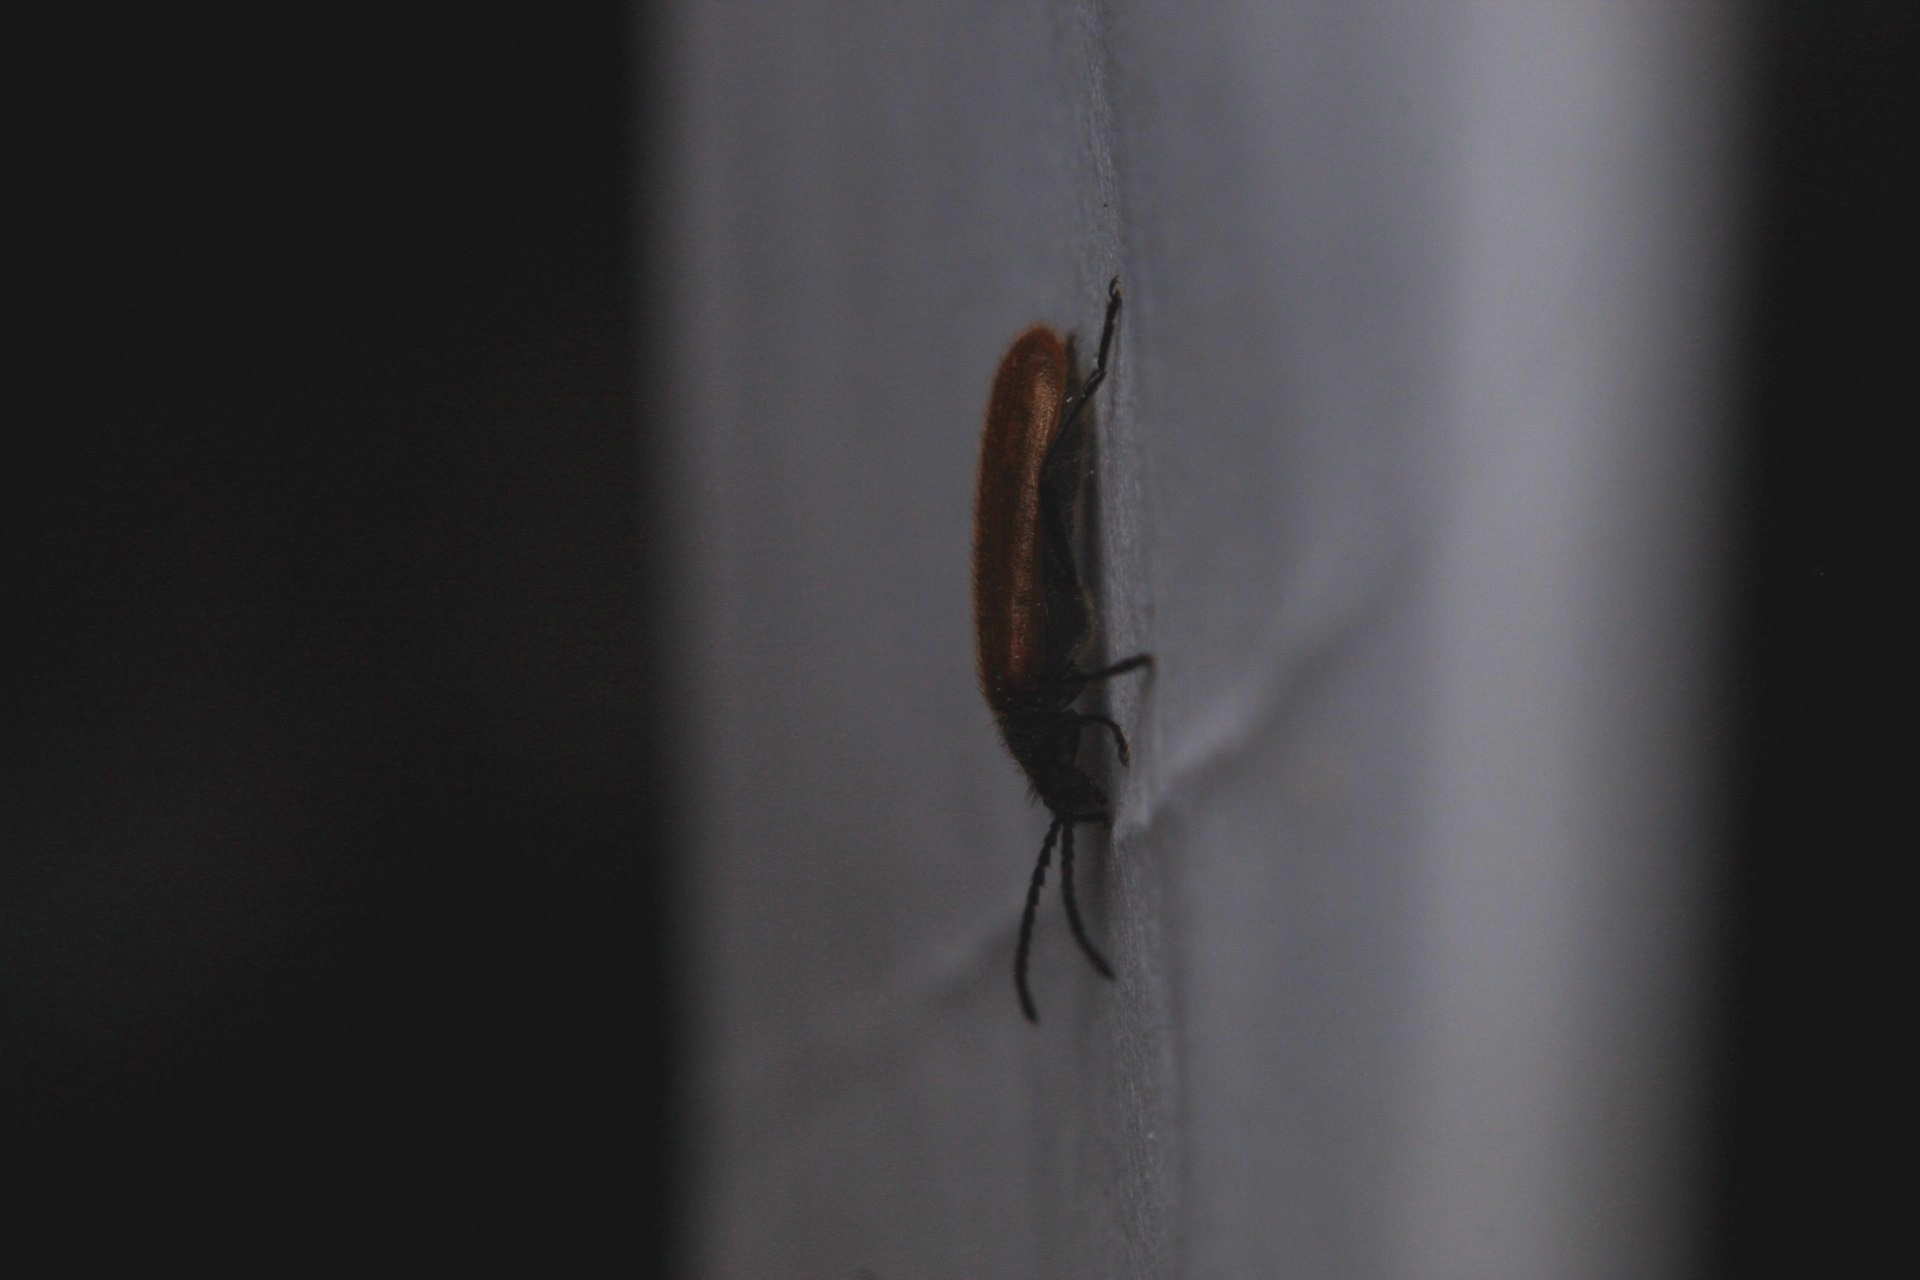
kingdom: Animalia
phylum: Arthropoda
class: Insecta
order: Coleoptera
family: Tenebrionidae
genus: Lagria
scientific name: Lagria hirta
